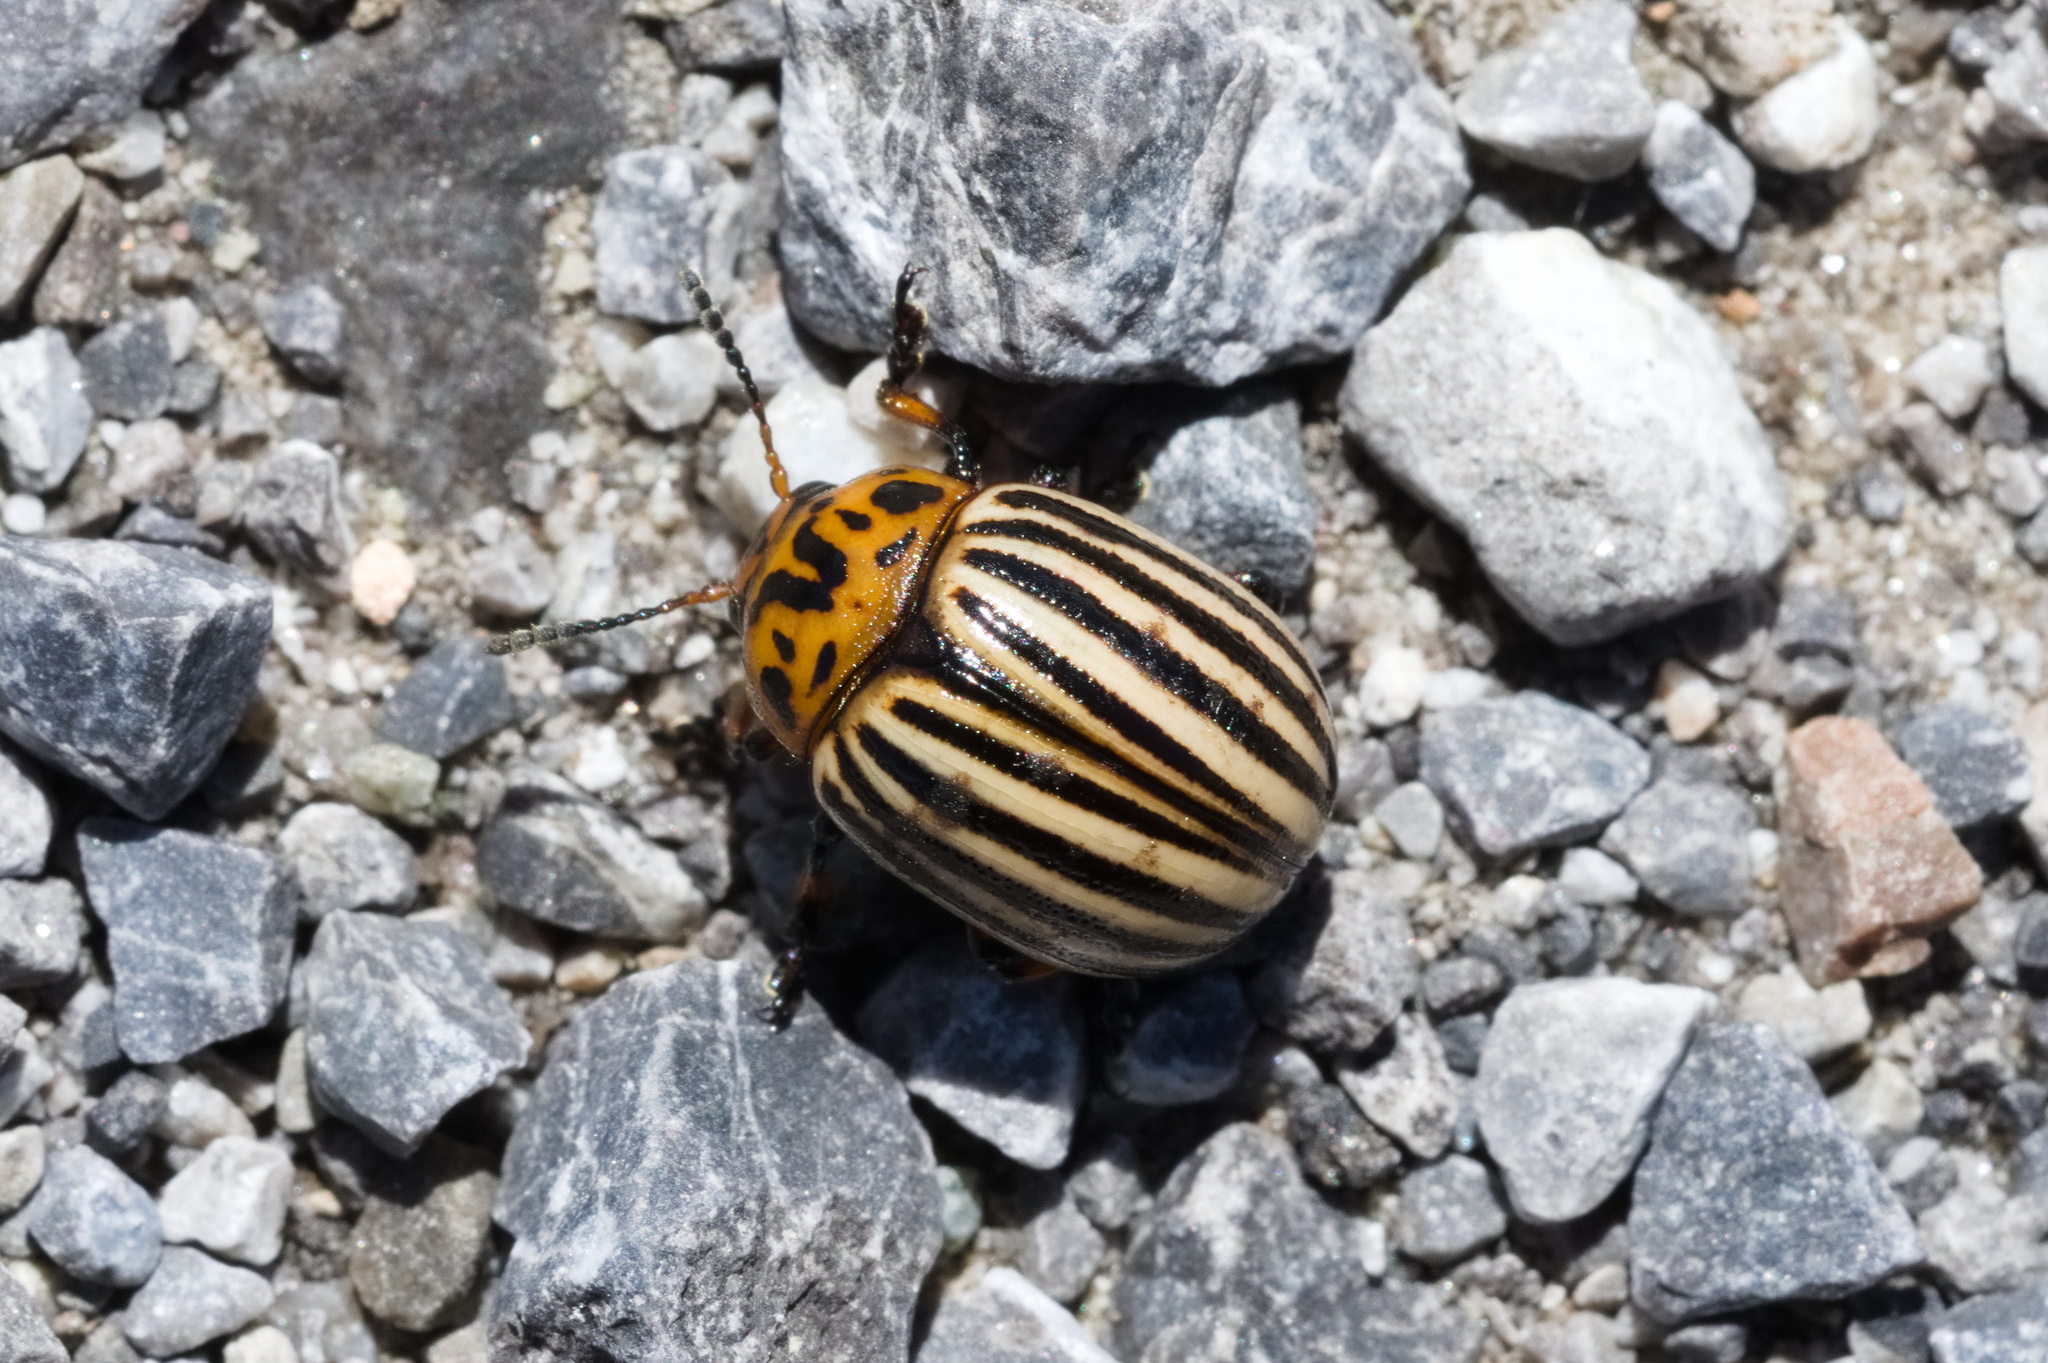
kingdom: Animalia
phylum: Arthropoda
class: Insecta
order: Coleoptera
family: Chrysomelidae
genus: Leptinotarsa
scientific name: Leptinotarsa decemlineata
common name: Colorado potato beetle
